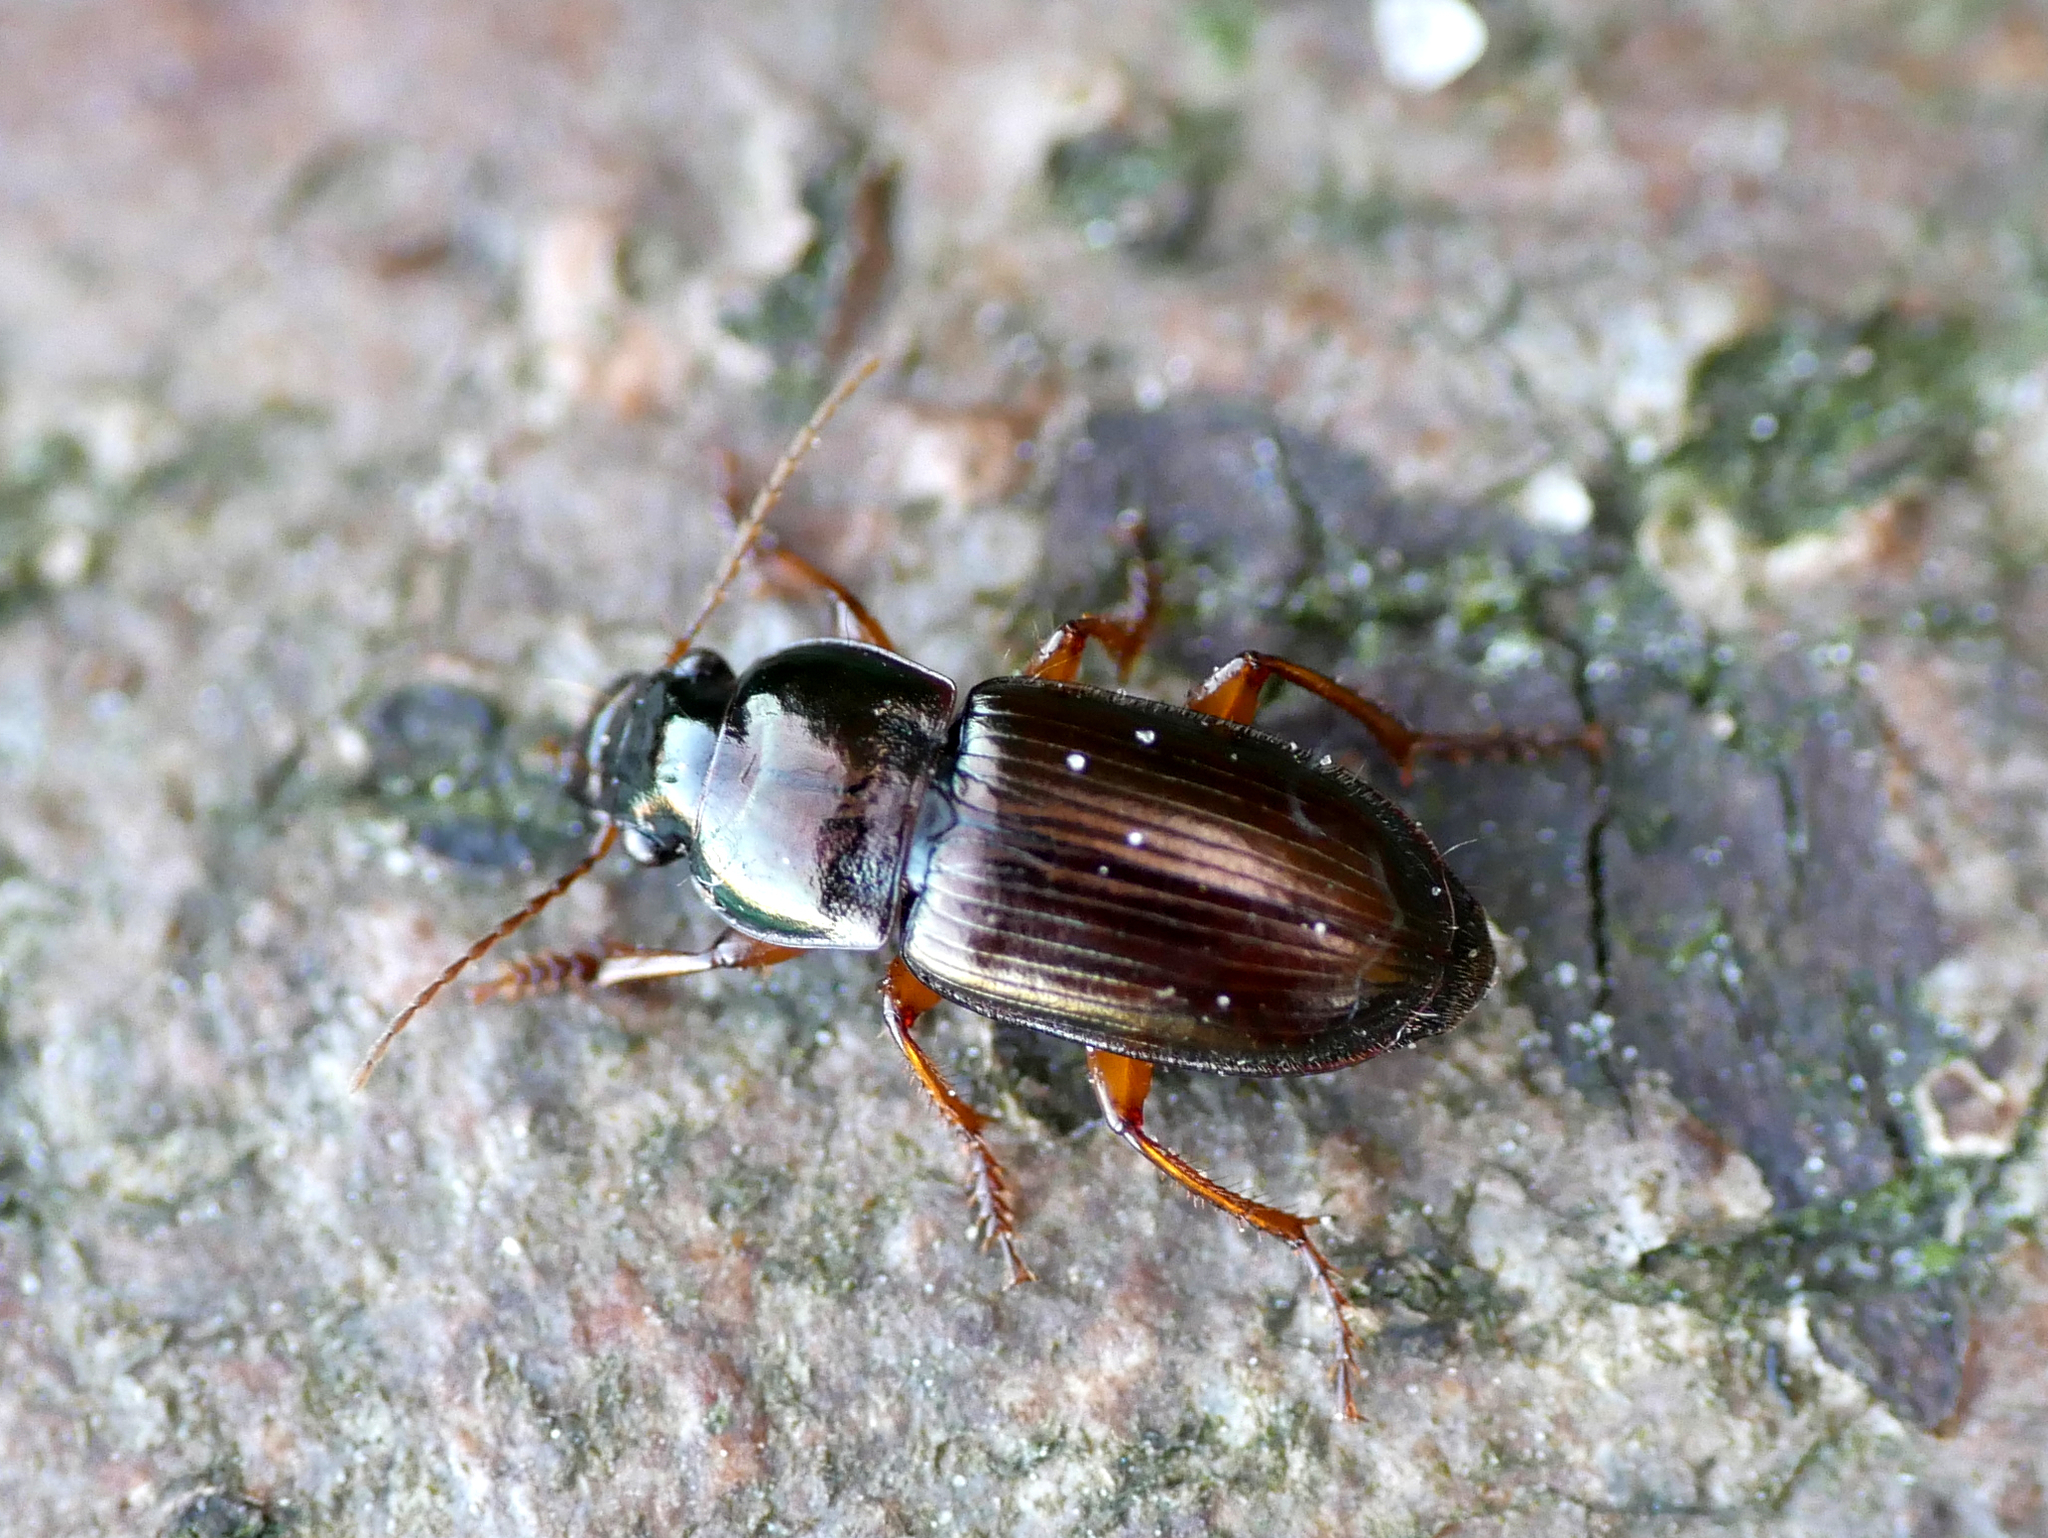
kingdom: Animalia
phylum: Arthropoda
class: Insecta
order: Coleoptera
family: Carabidae
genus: Harpalus
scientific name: Harpalus affinis
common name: Polychrome harp ground beetle
